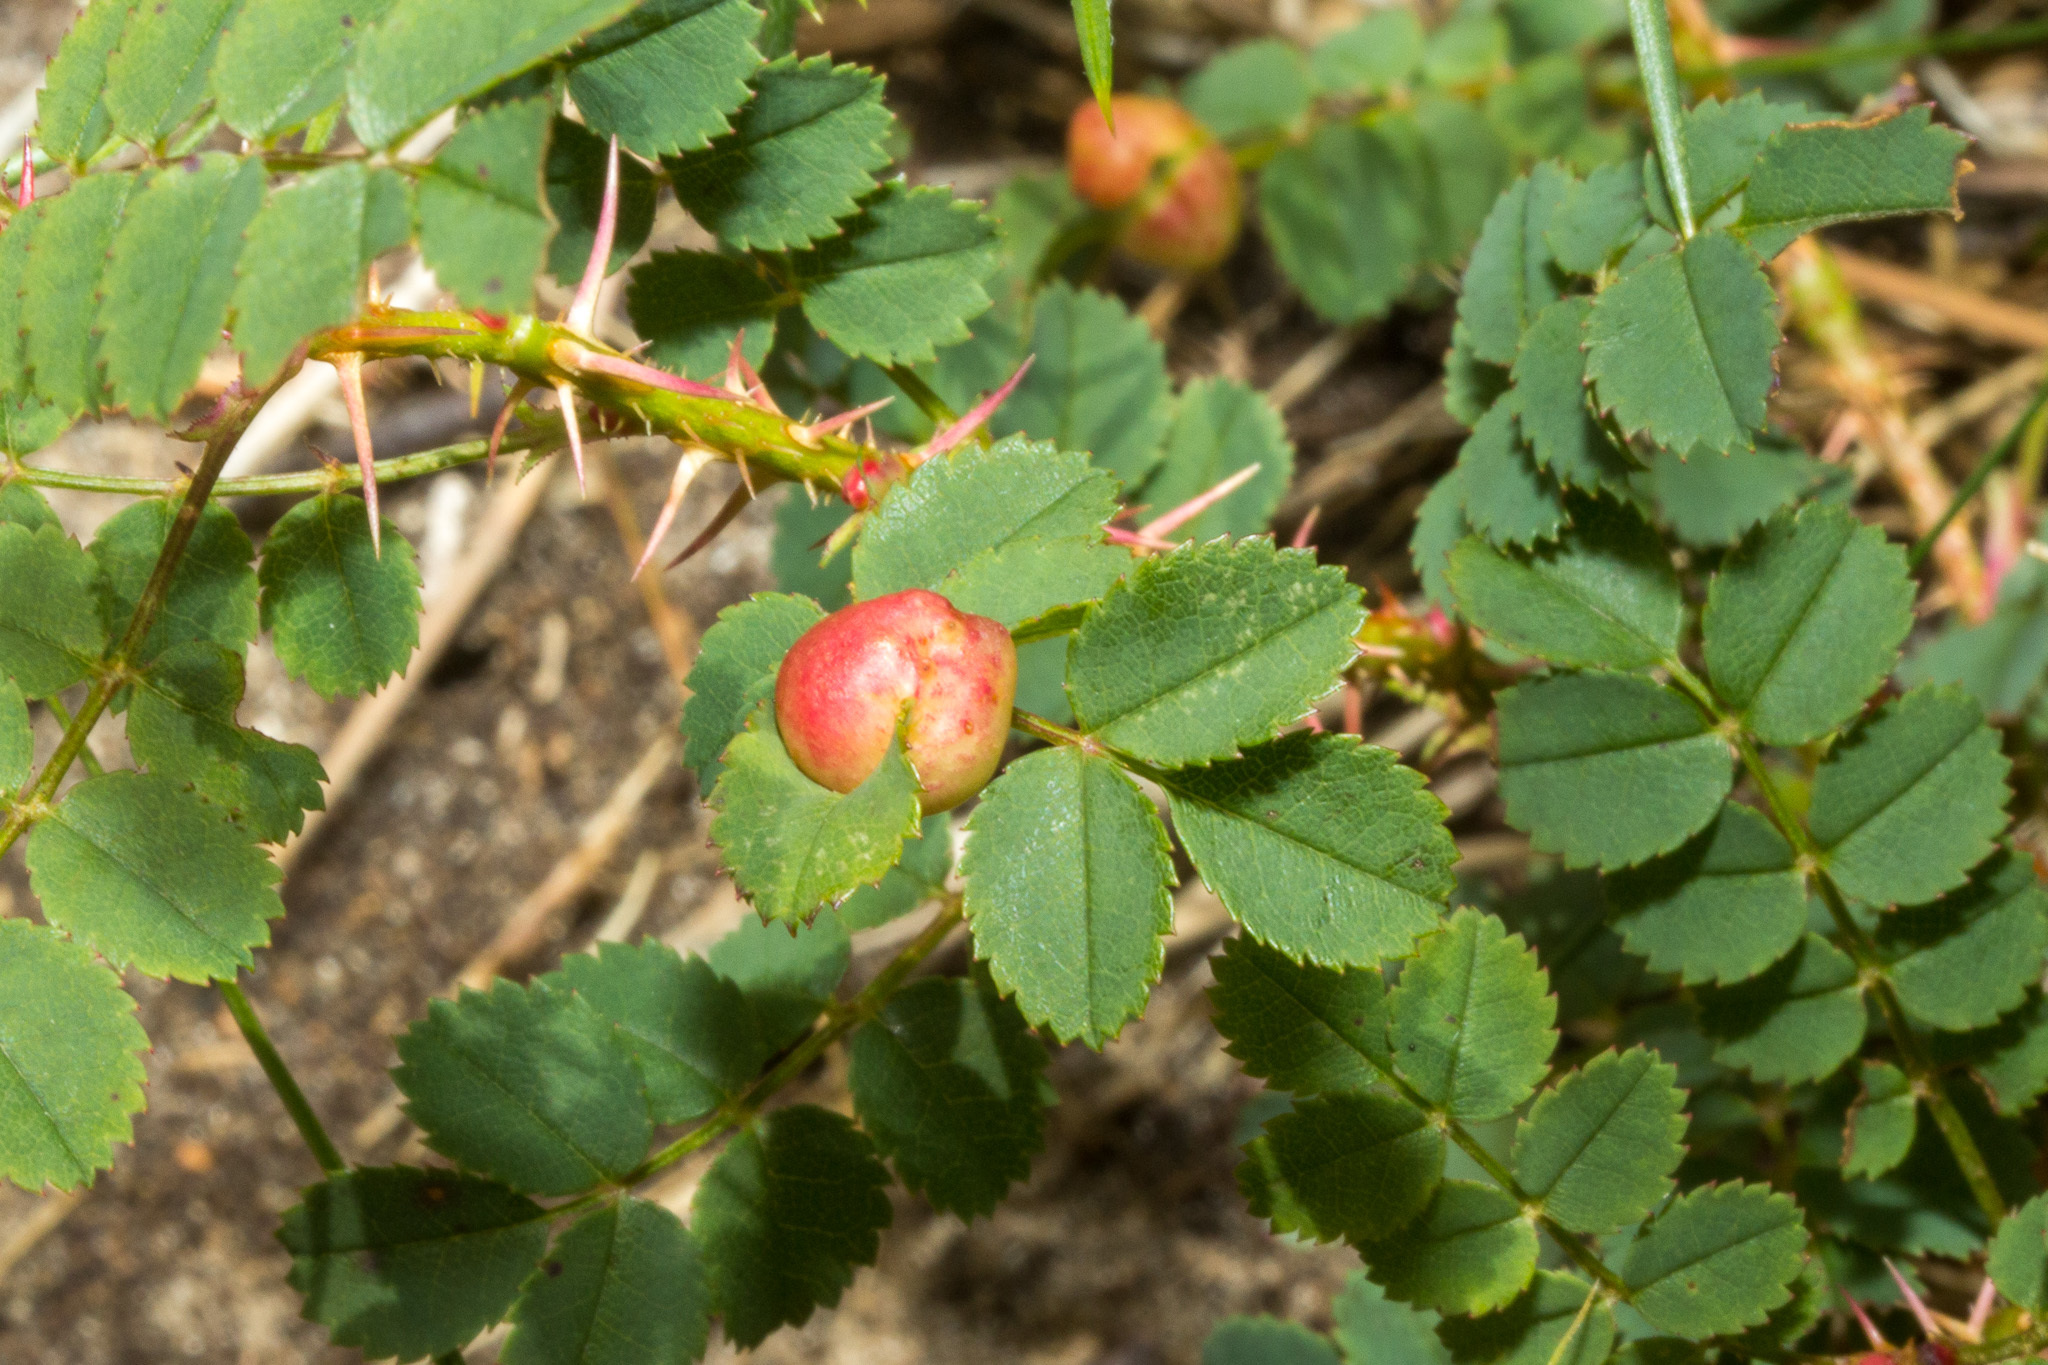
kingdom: Animalia
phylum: Arthropoda
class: Insecta
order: Hymenoptera
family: Cynipidae
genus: Diplolepis
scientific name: Diplolepis spinosissimae
